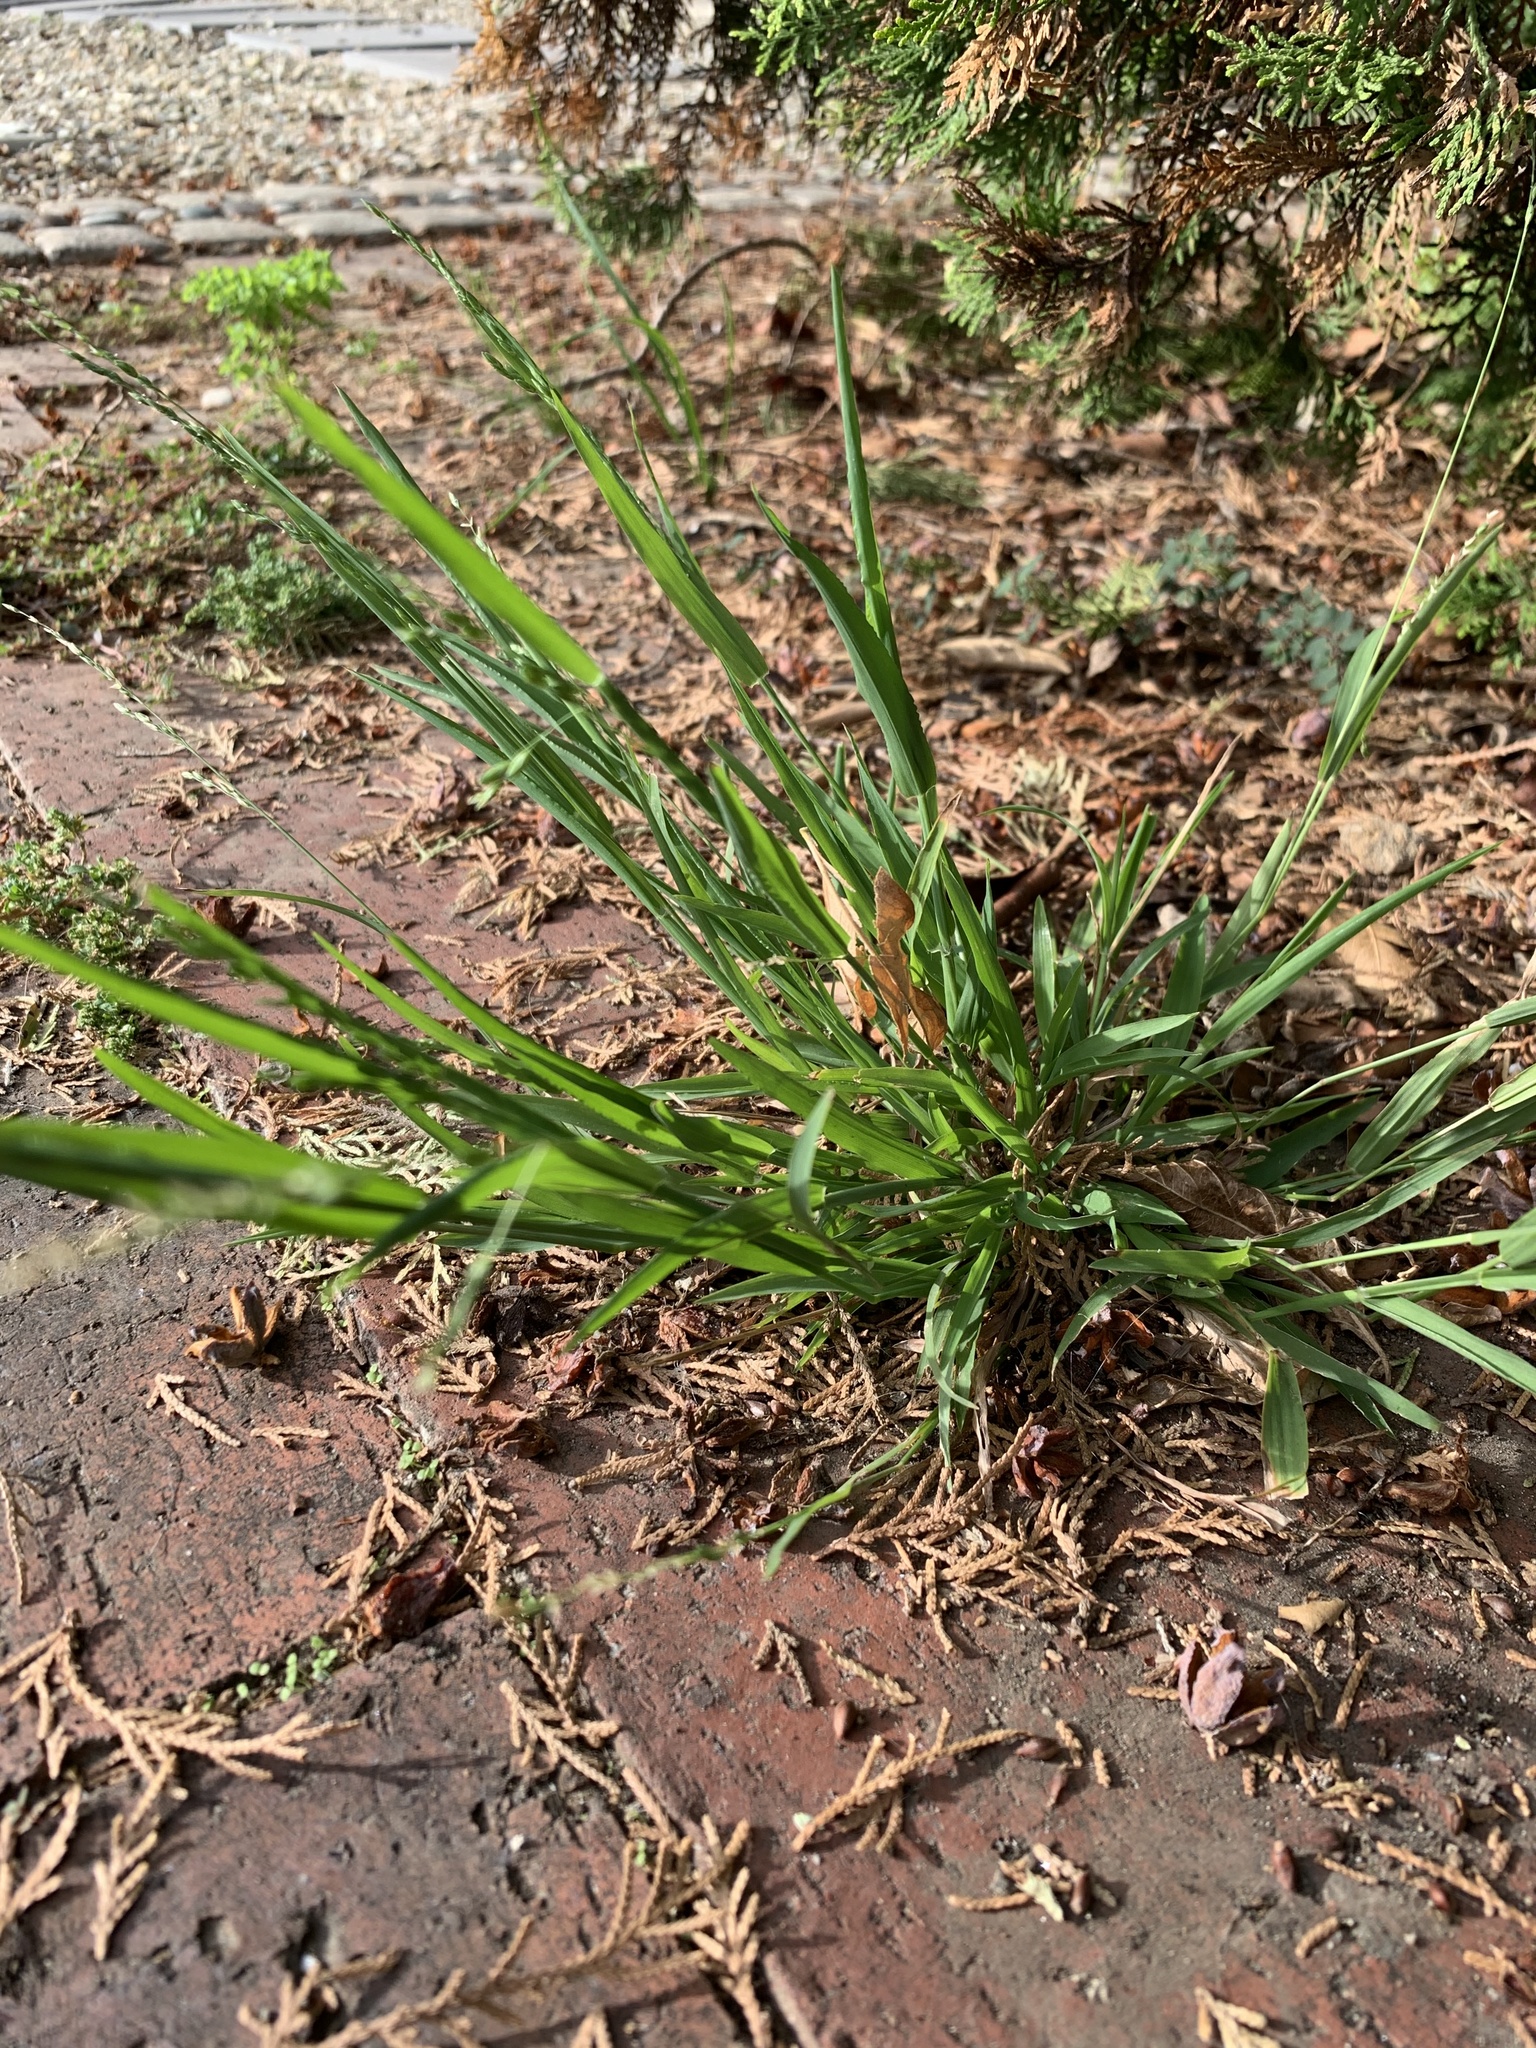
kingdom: Plantae
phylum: Tracheophyta
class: Liliopsida
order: Poales
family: Poaceae
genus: Ehrharta
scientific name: Ehrharta erecta
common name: Panic veldtgrass
